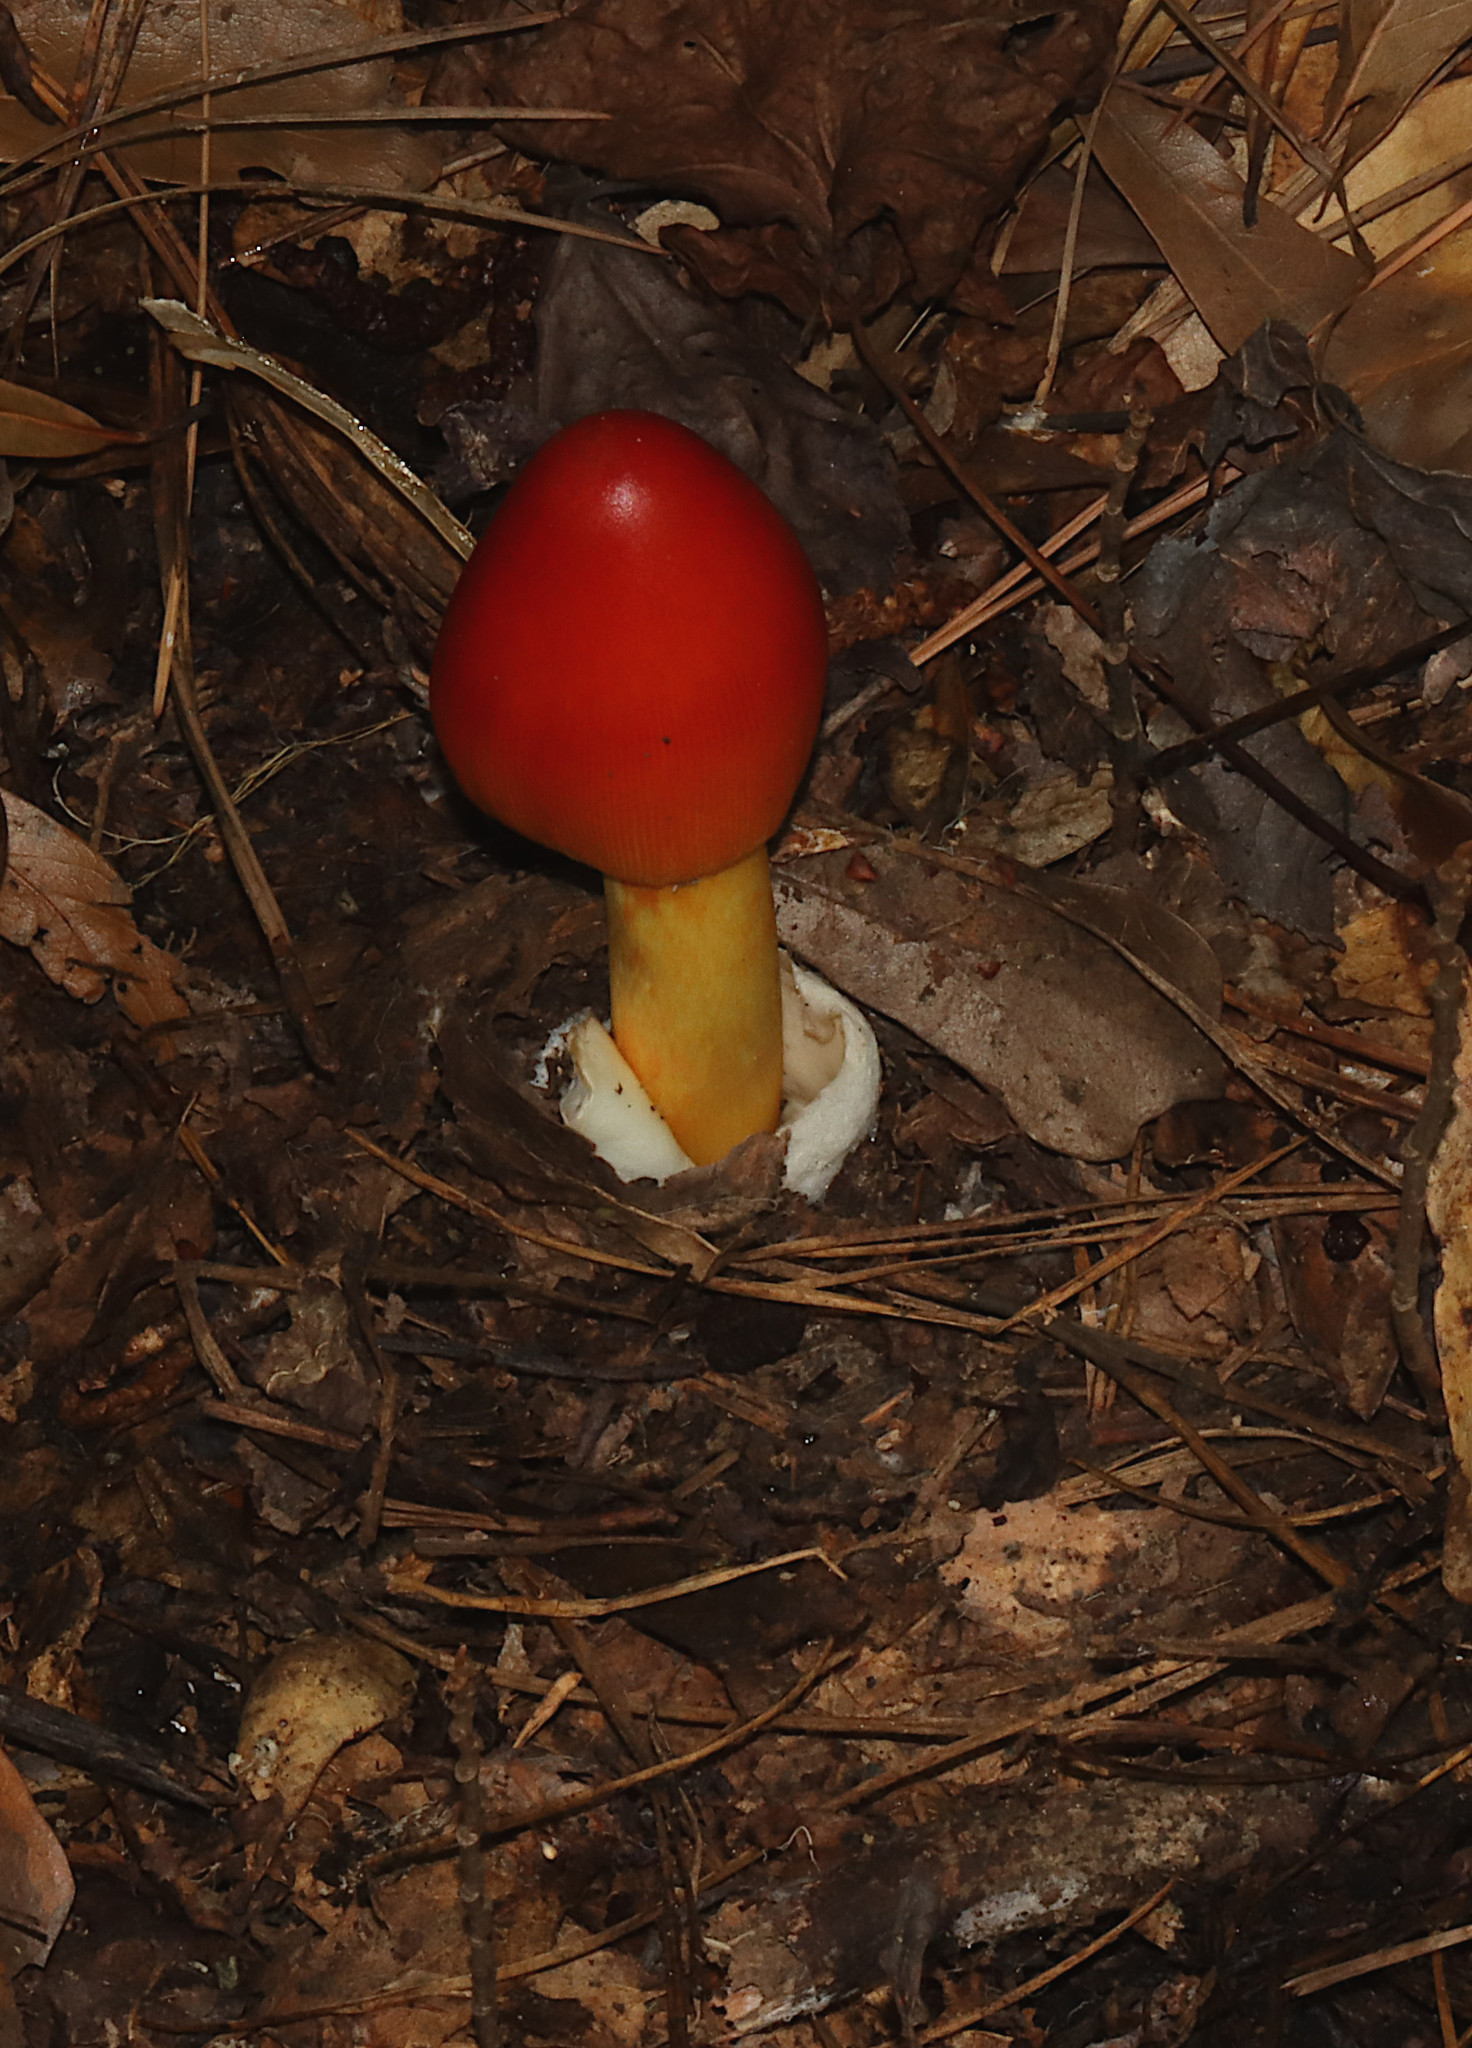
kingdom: Fungi
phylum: Basidiomycota
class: Agaricomycetes
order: Agaricales
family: Amanitaceae
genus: Amanita
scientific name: Amanita jacksonii
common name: Jackson's slender caesar
